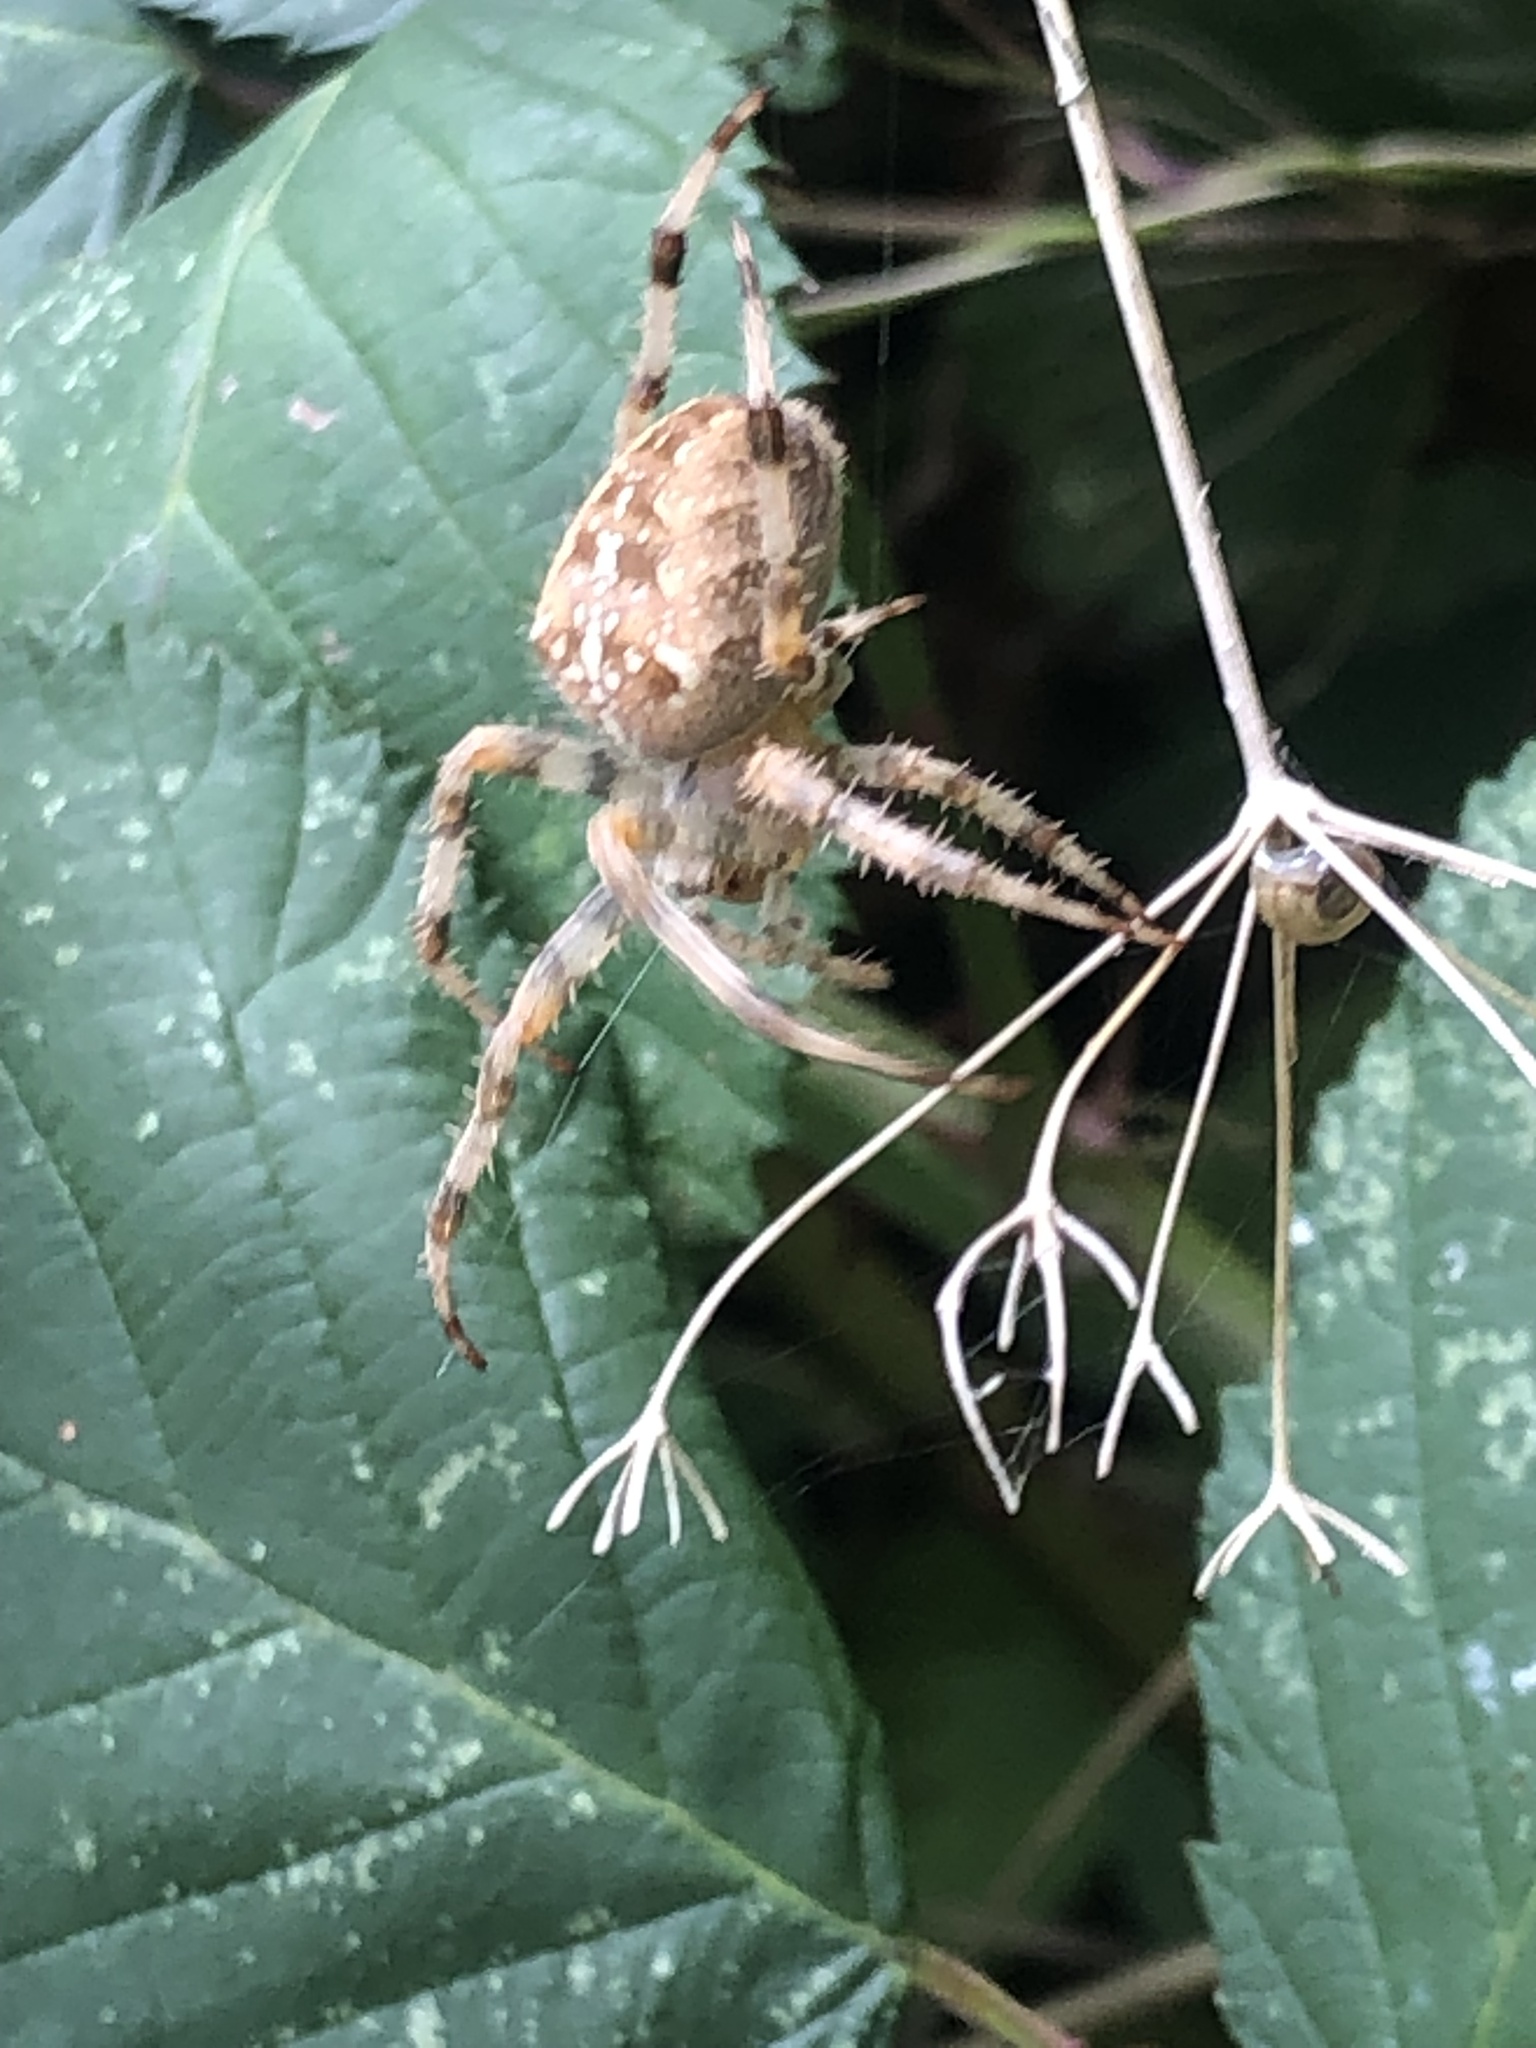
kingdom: Animalia
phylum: Arthropoda
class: Arachnida
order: Araneae
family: Araneidae
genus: Araneus
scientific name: Araneus diadematus
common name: Cross orbweaver
